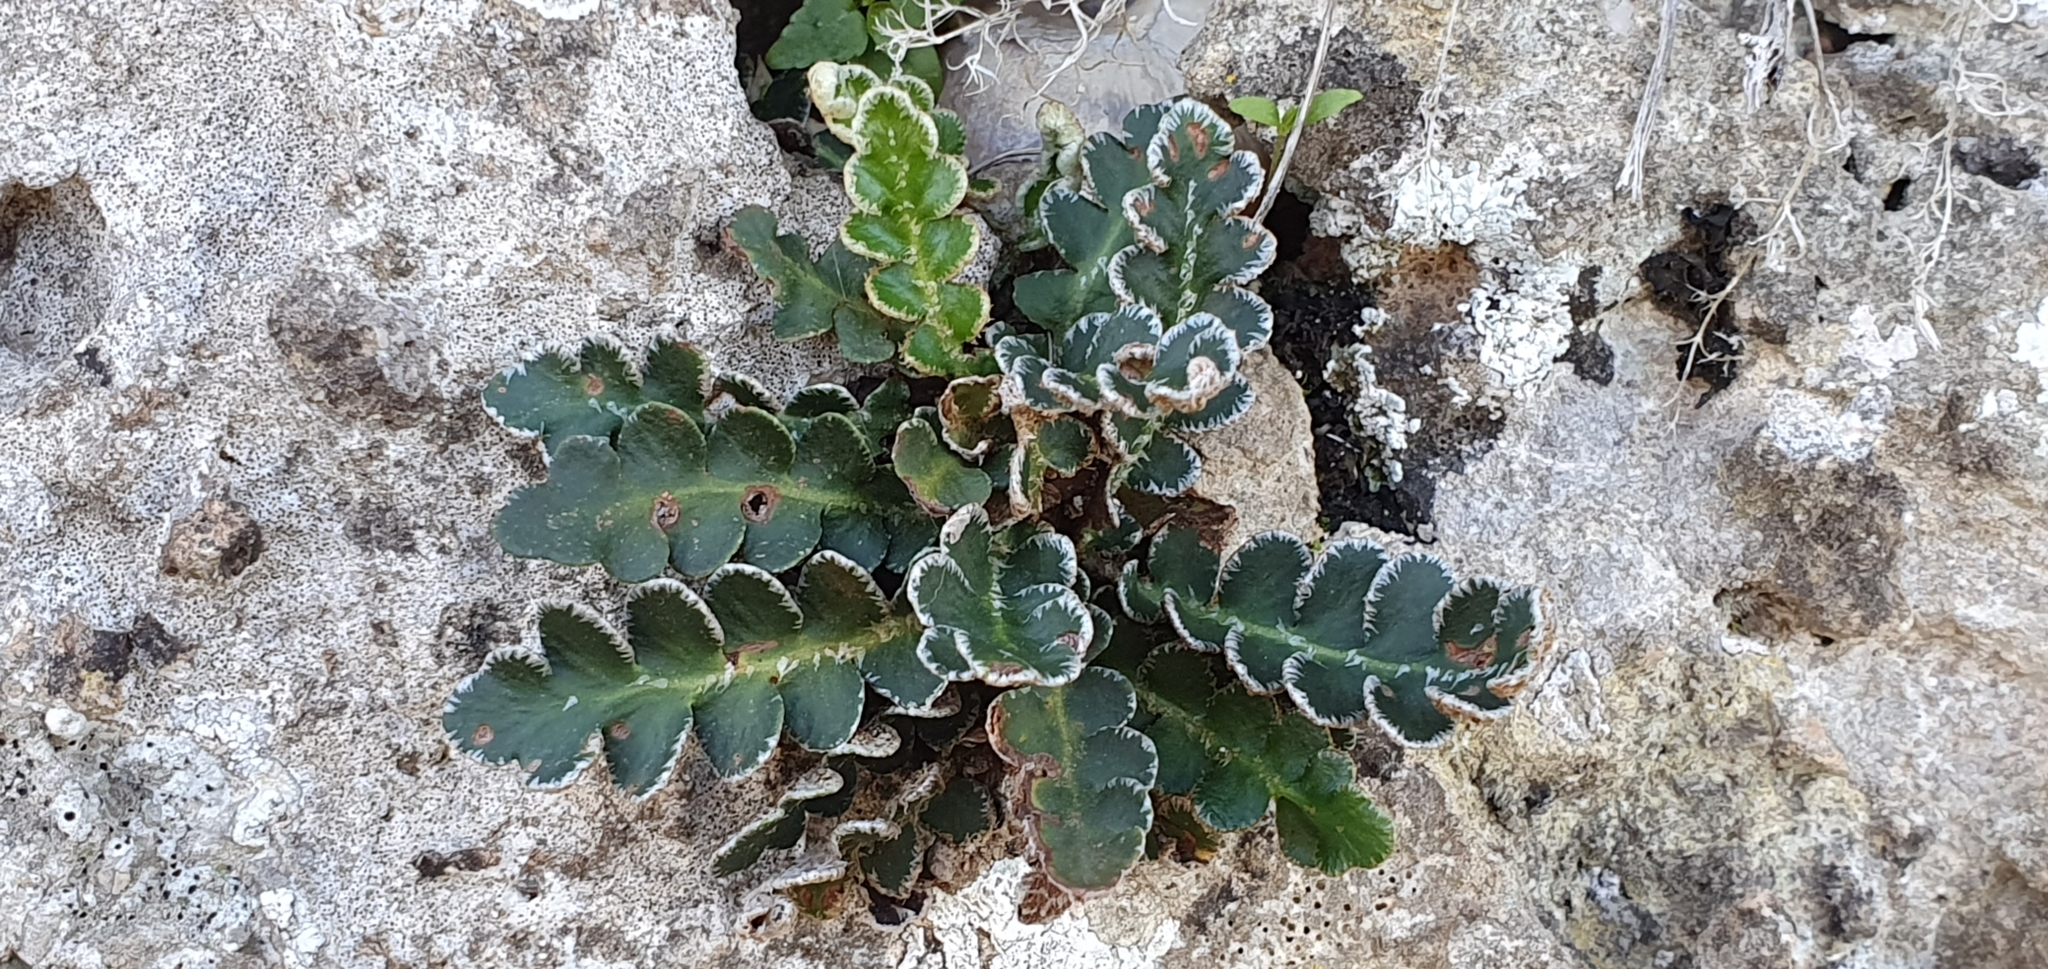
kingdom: Plantae
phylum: Tracheophyta
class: Polypodiopsida
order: Polypodiales
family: Aspleniaceae
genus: Asplenium
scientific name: Asplenium ceterach
